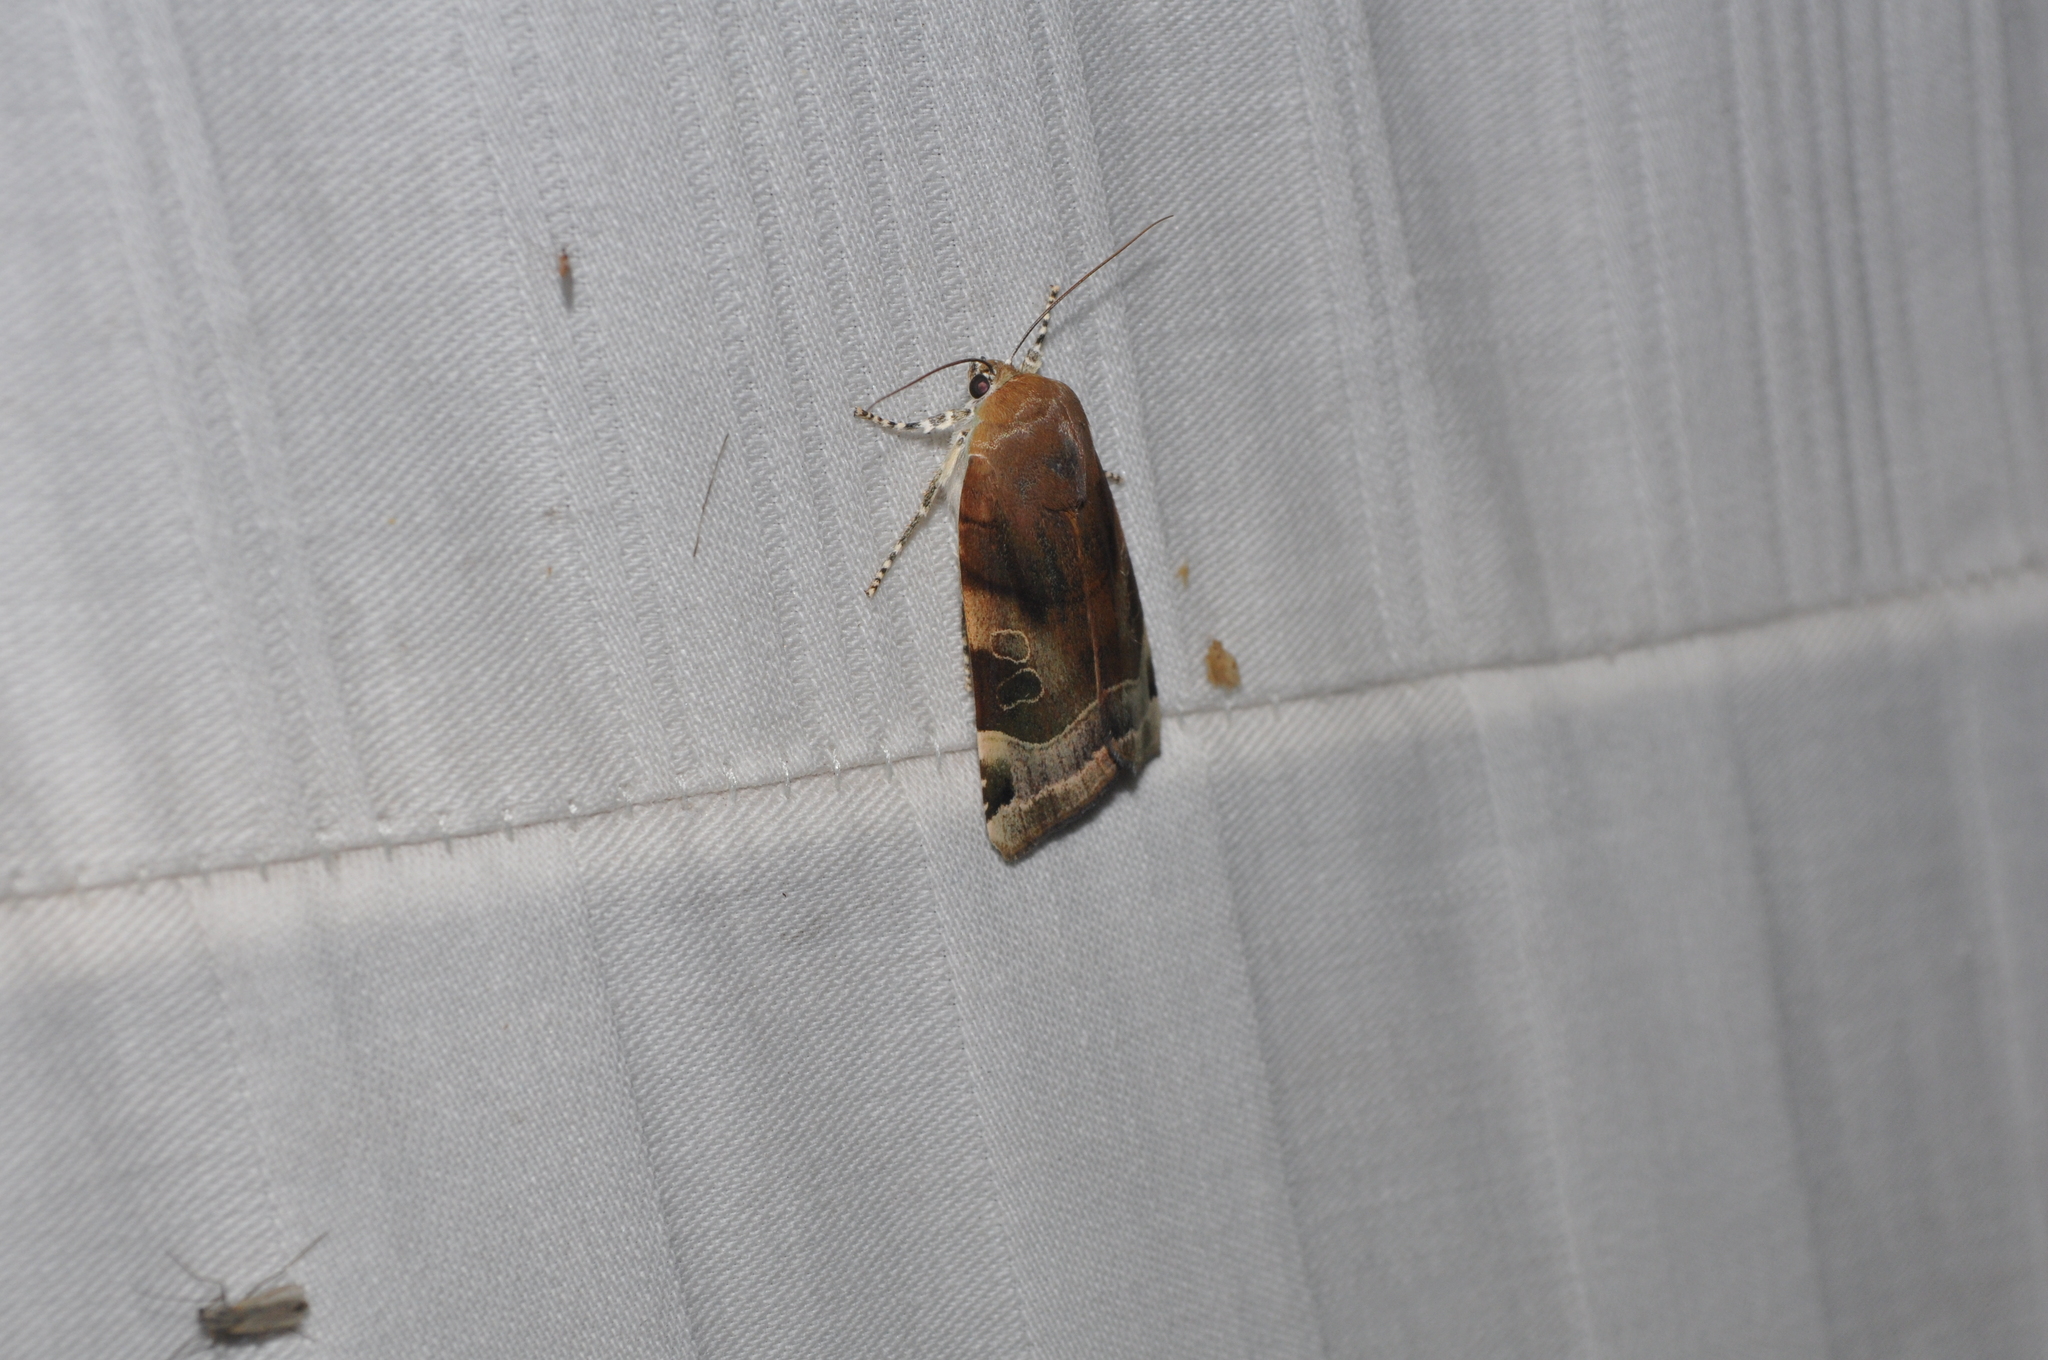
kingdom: Animalia
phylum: Arthropoda
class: Insecta
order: Lepidoptera
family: Noctuidae
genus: Noctua
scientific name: Noctua fimbriata
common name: Broad-bordered yellow underwing
